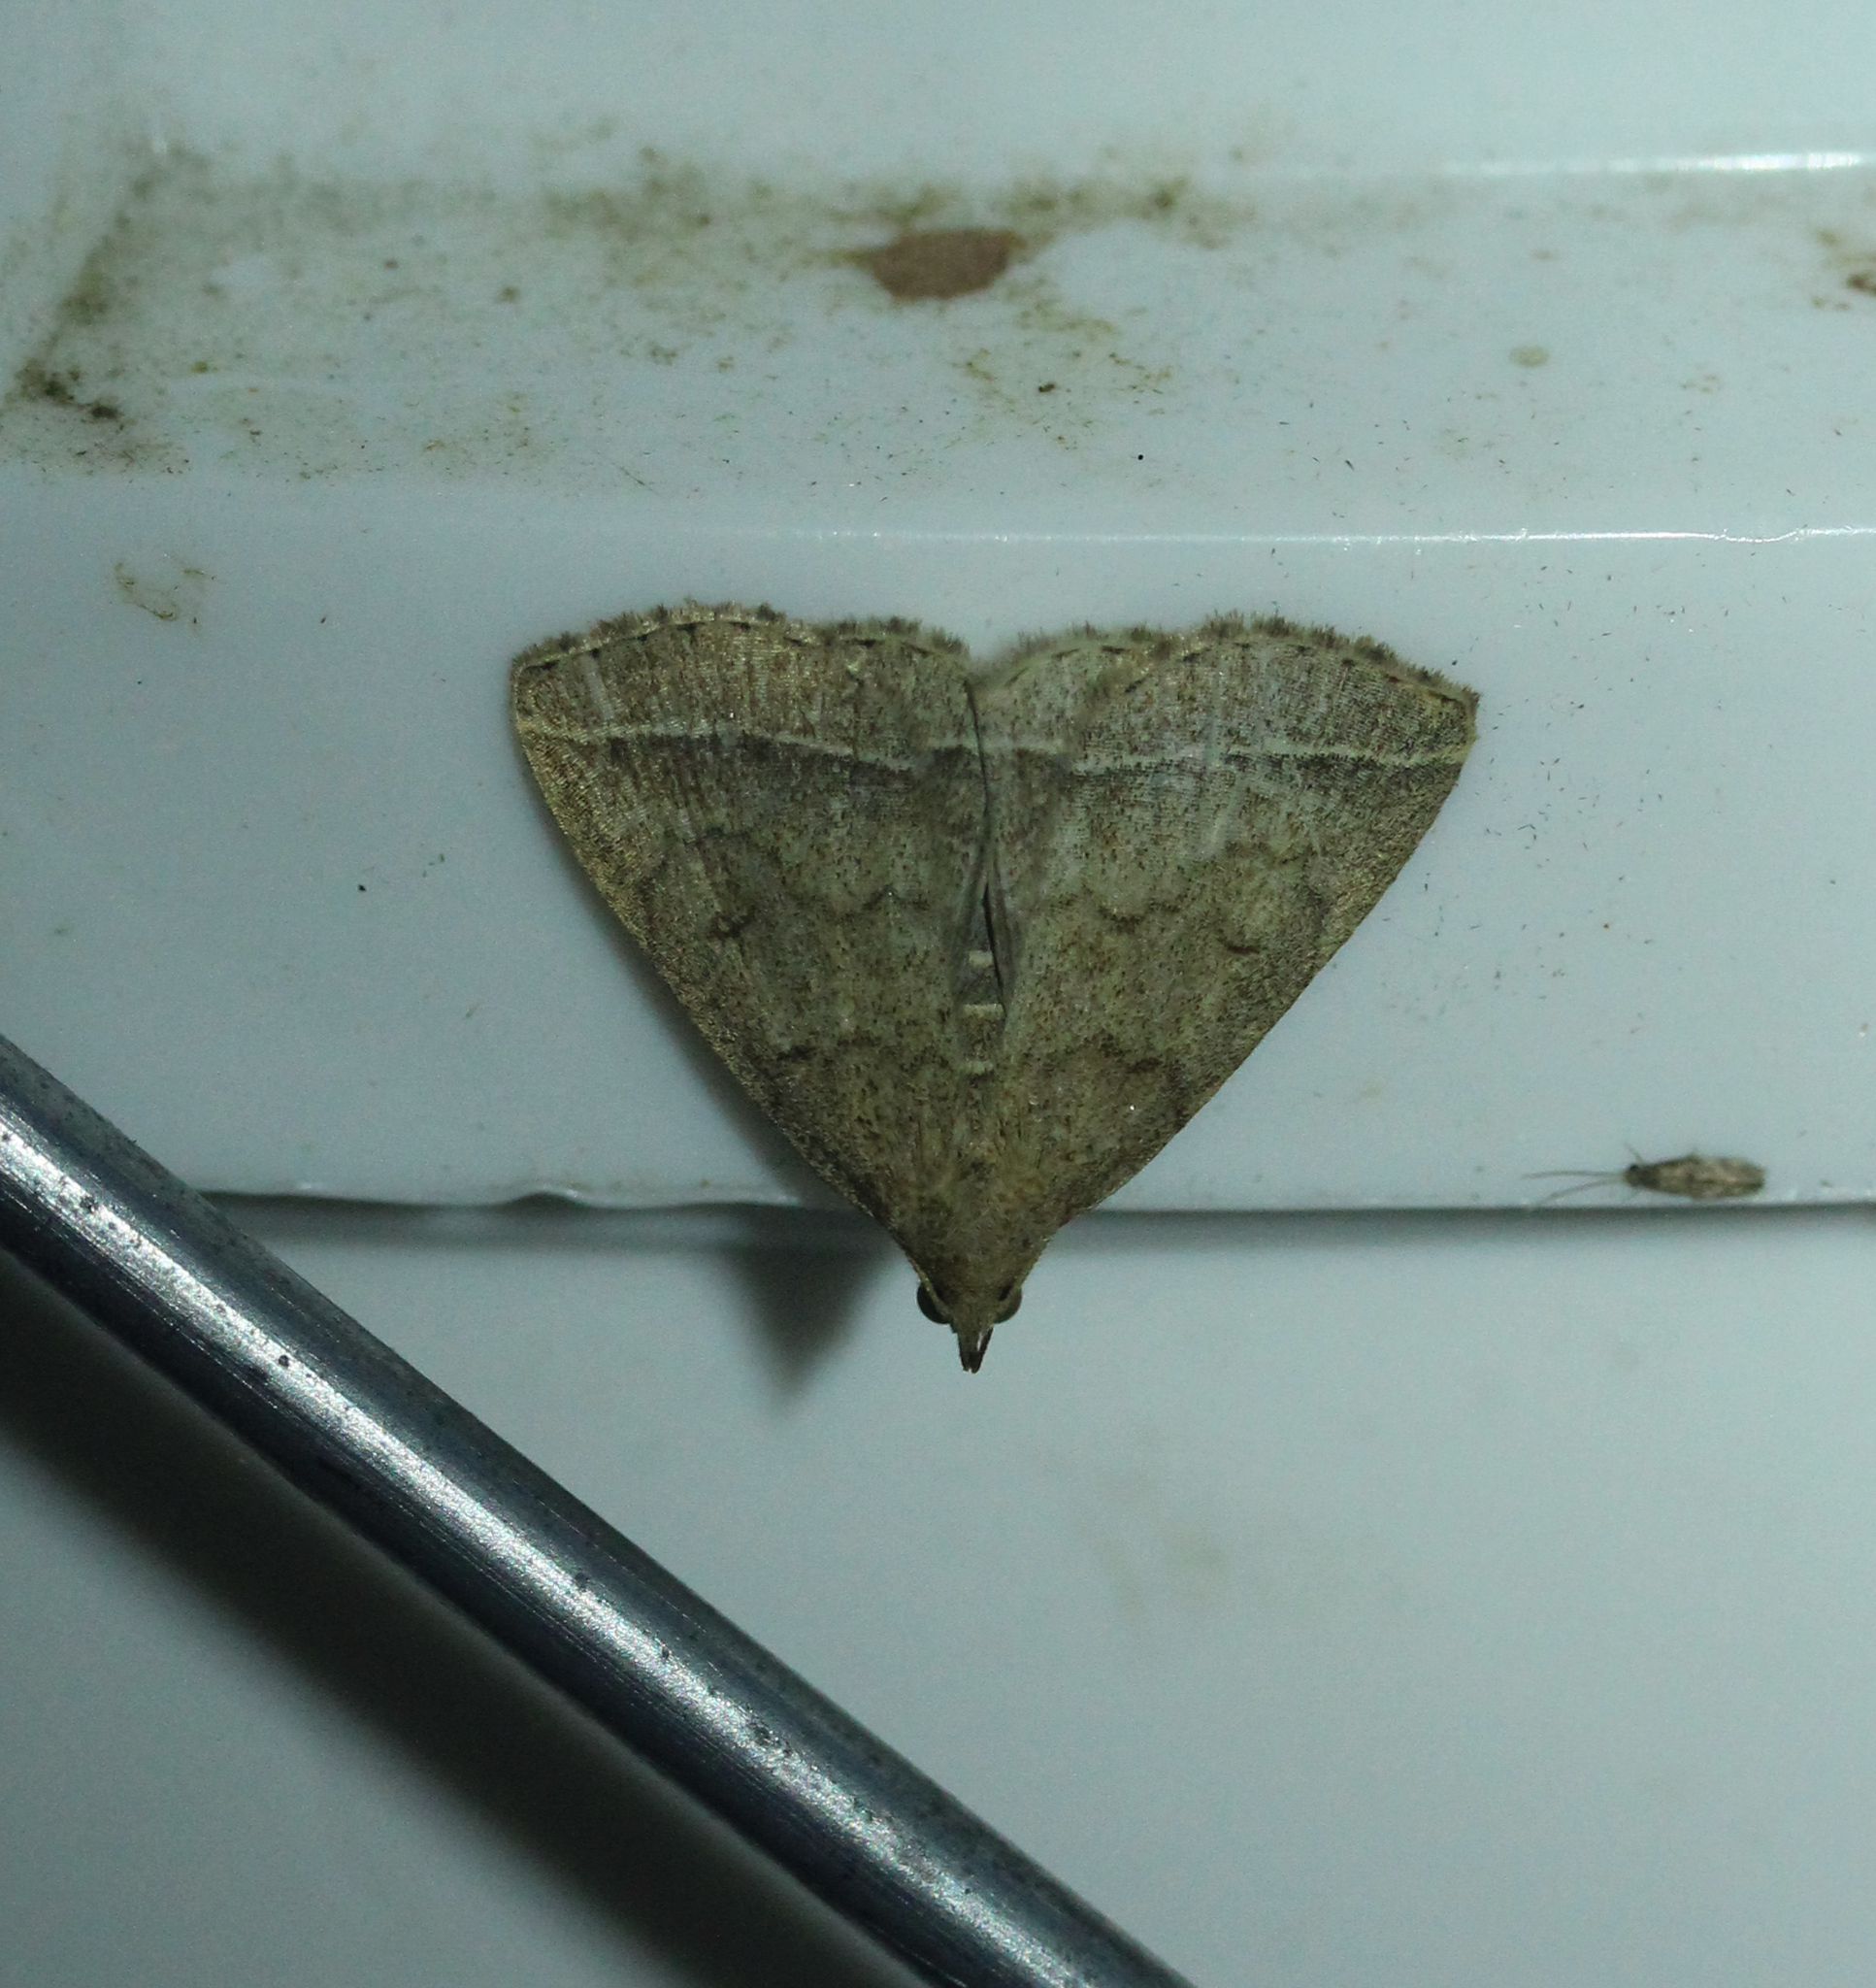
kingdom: Animalia
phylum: Arthropoda
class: Insecta
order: Lepidoptera
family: Erebidae
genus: Zanclognatha
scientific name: Zanclognatha jacchusalis
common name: Yellowish zanclognatha
